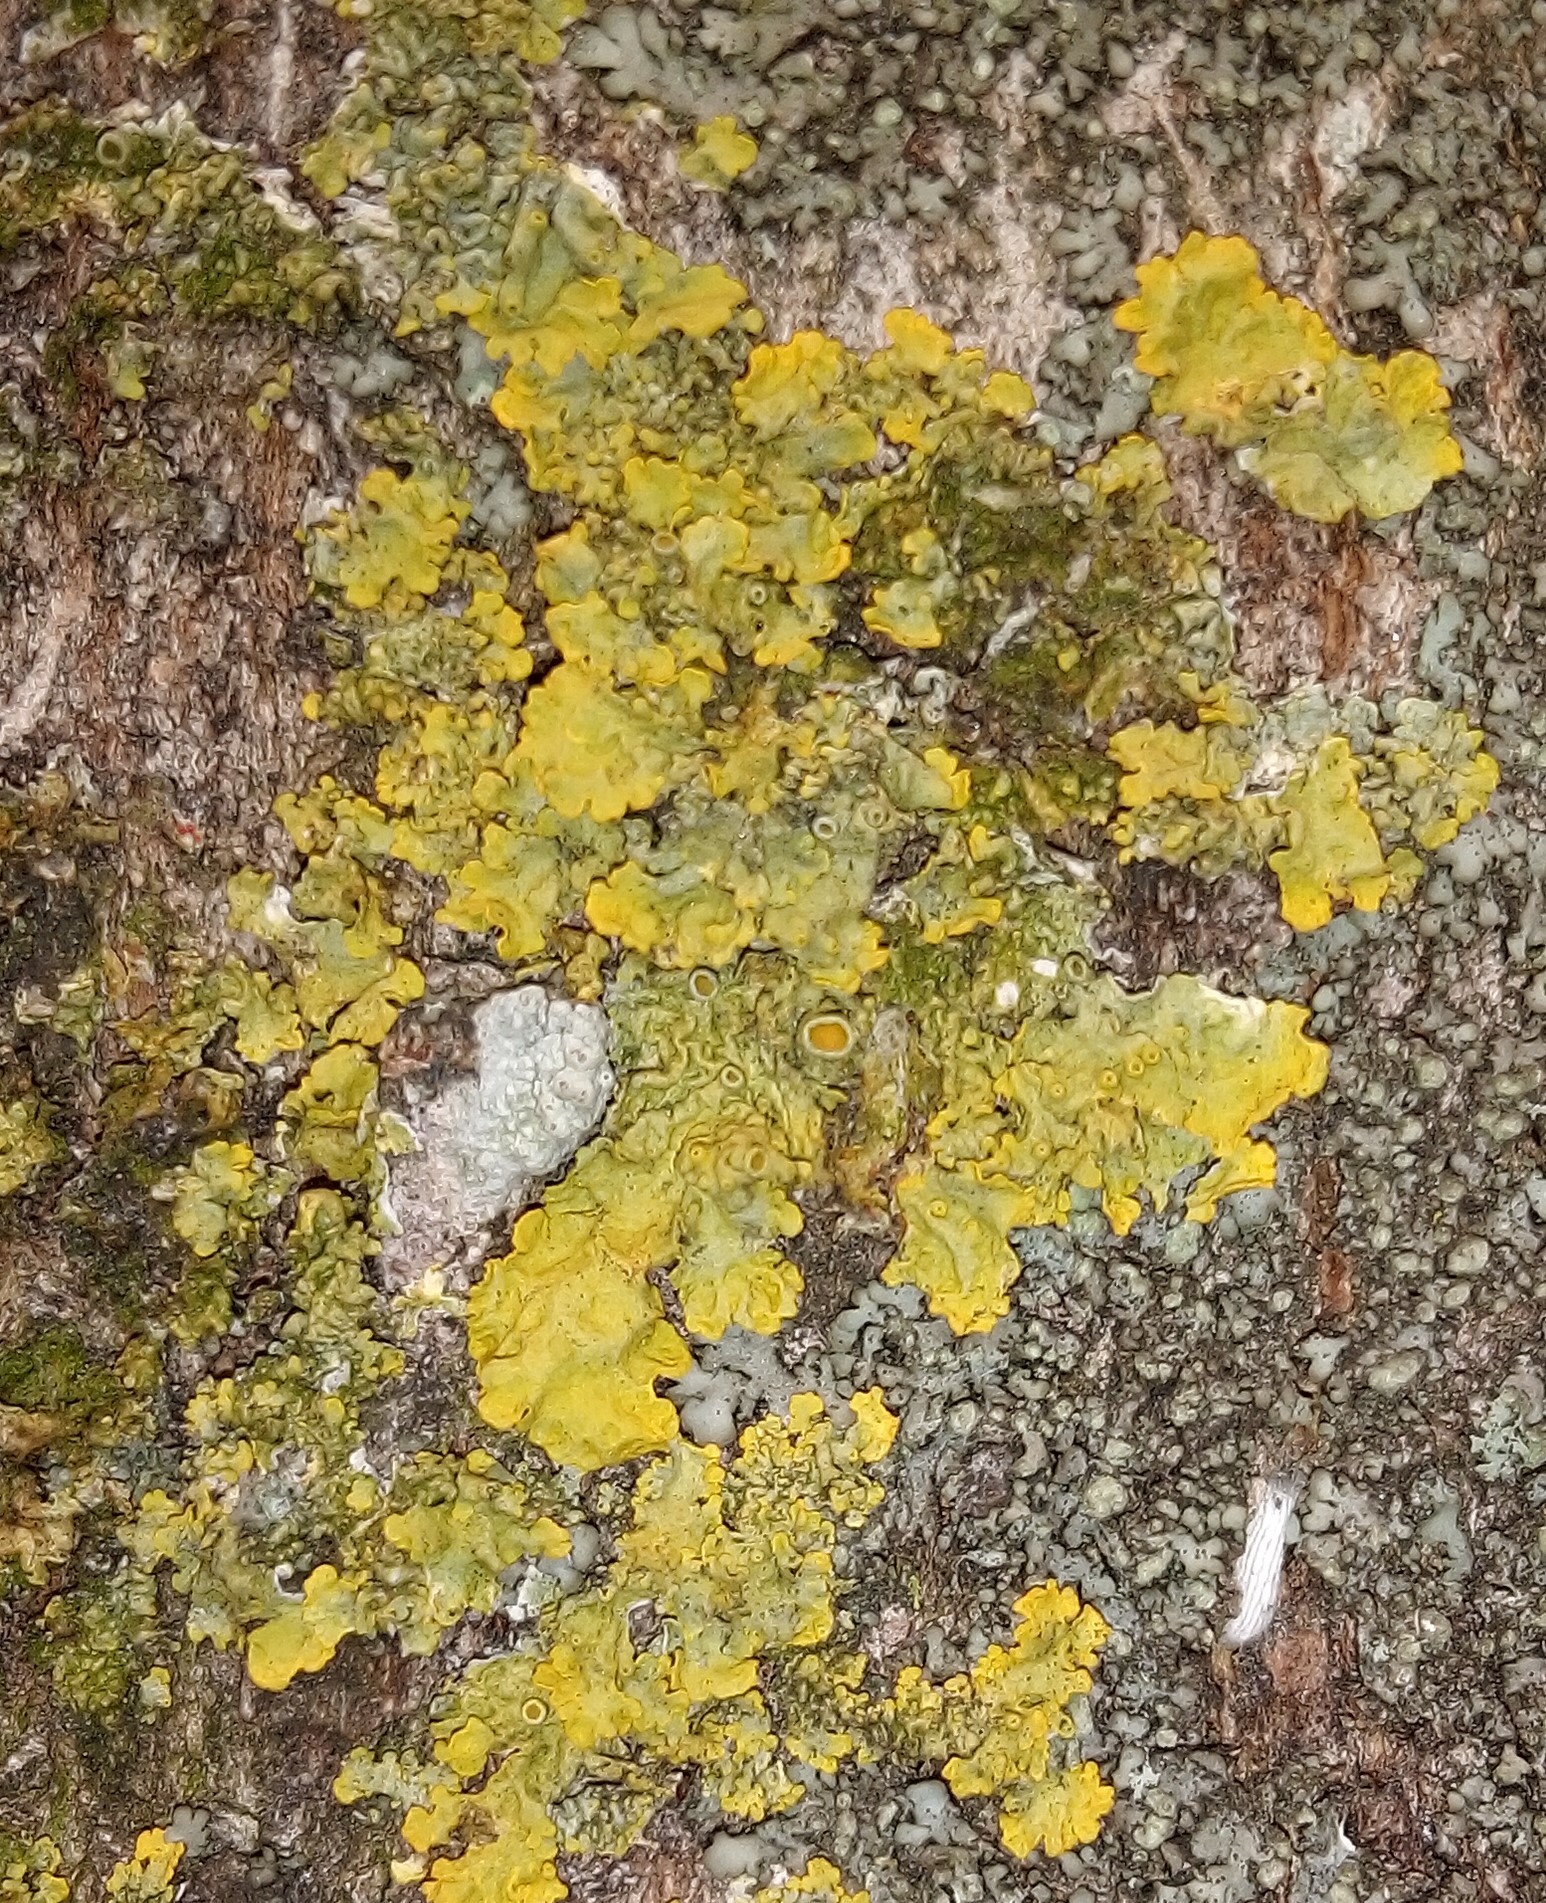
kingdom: Fungi
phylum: Ascomycota
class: Lecanoromycetes
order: Teloschistales
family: Teloschistaceae
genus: Xanthoria
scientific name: Xanthoria parietina
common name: Common orange lichen
